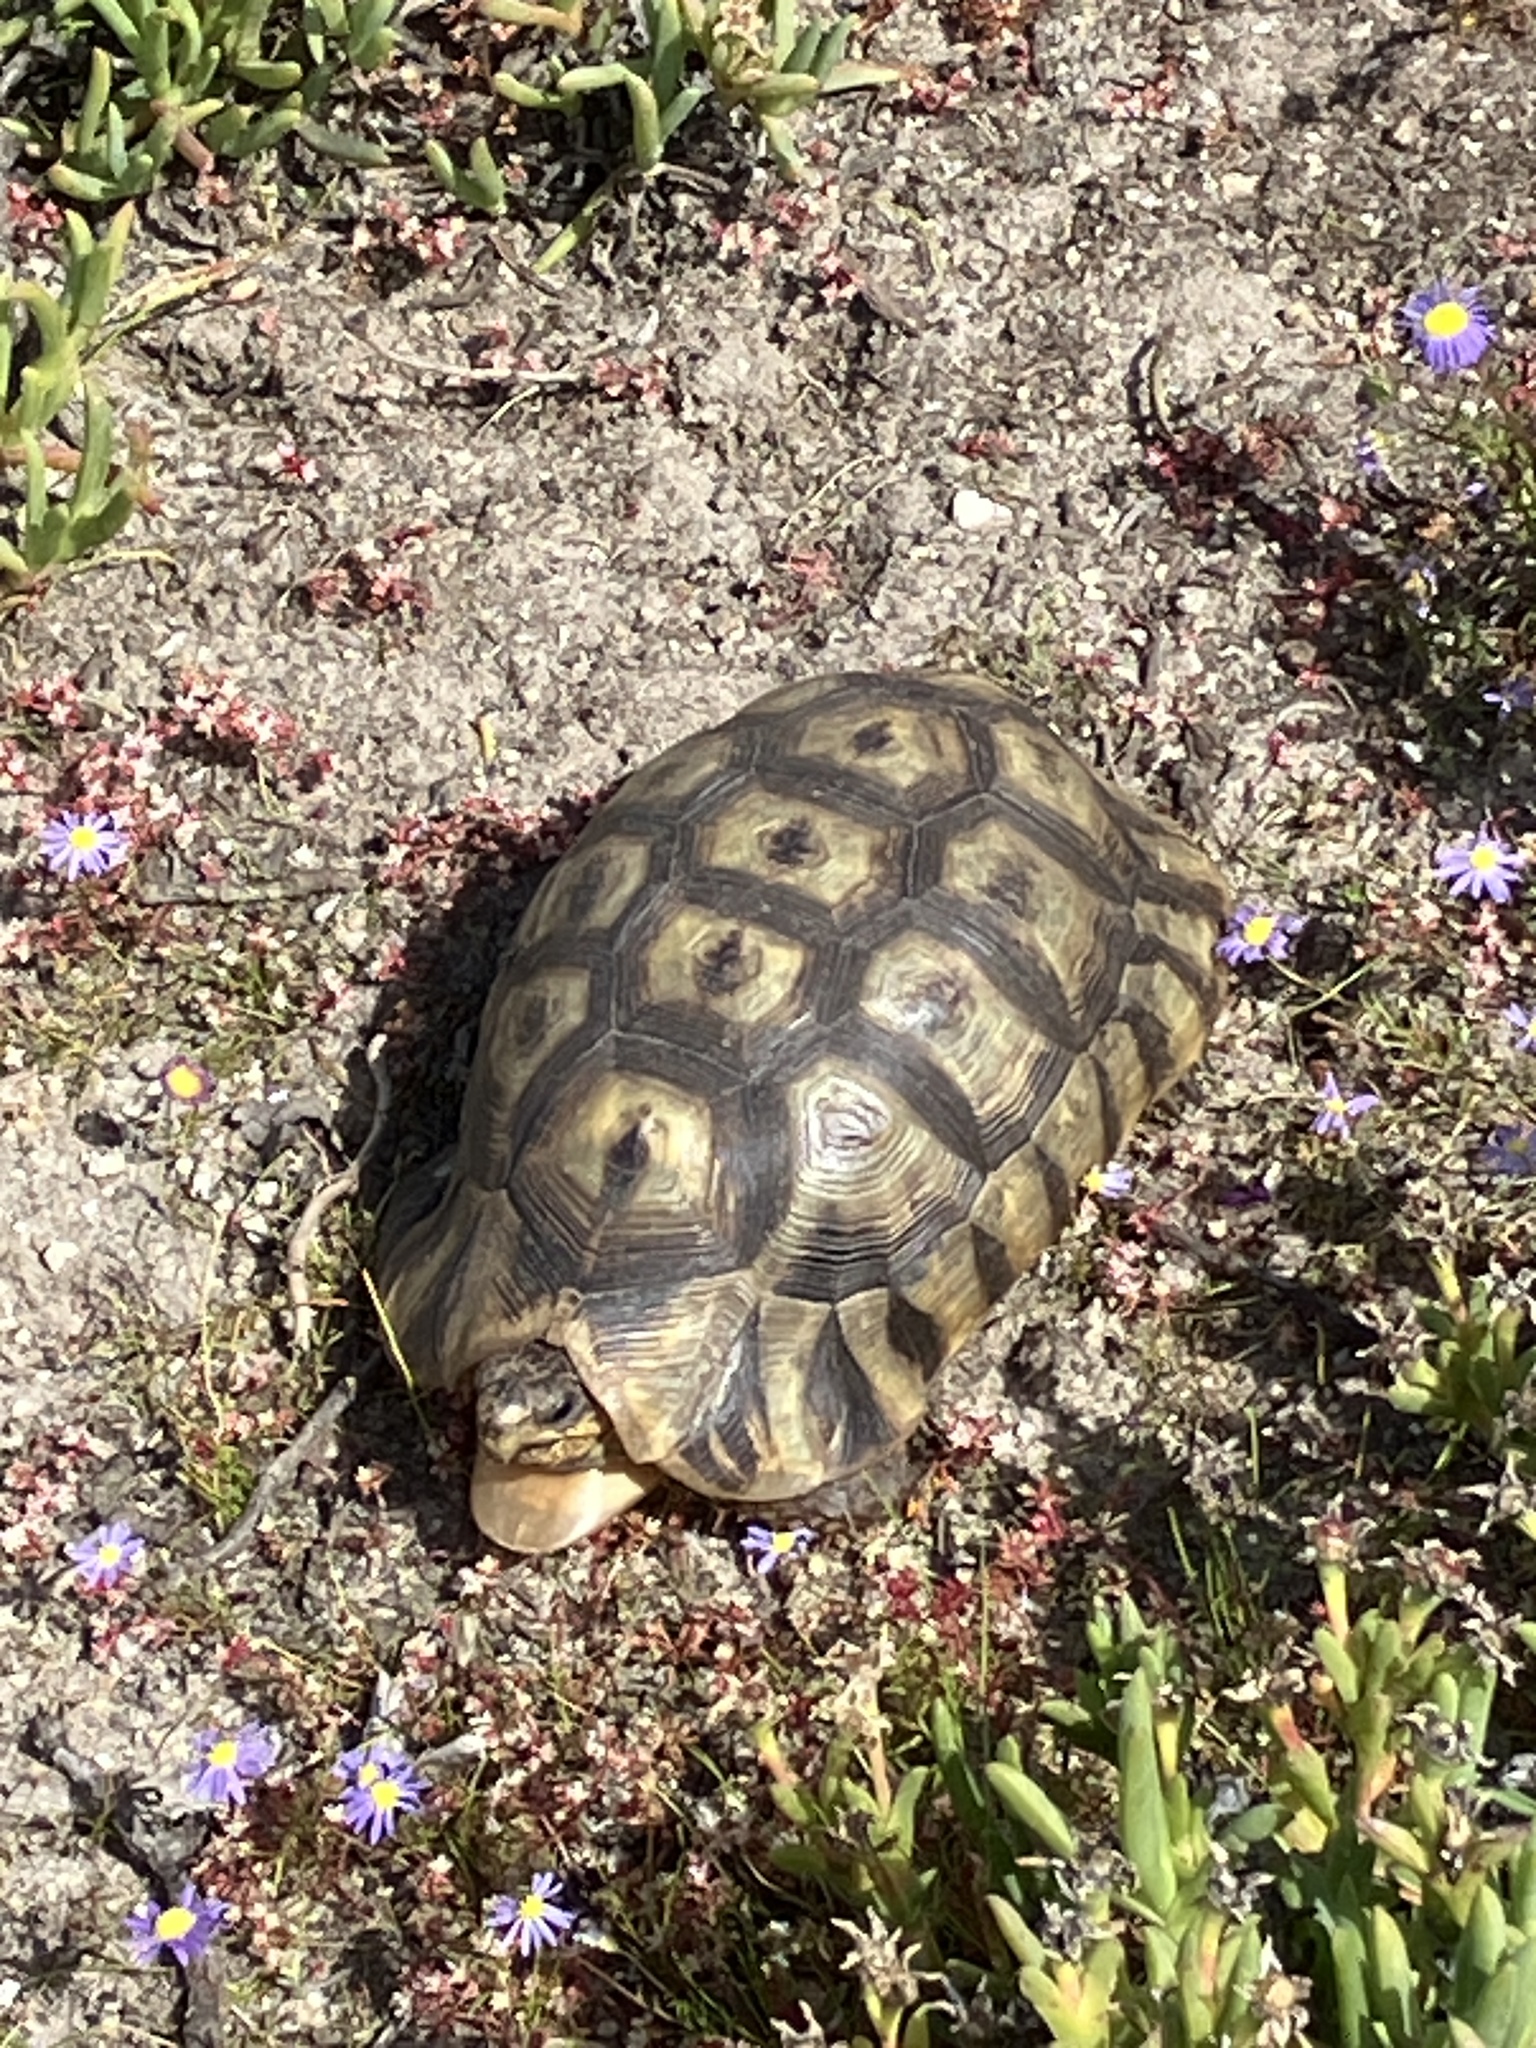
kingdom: Animalia
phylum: Chordata
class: Testudines
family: Testudinidae
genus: Chersina
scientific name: Chersina angulata
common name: South african bowsprit tortoise
